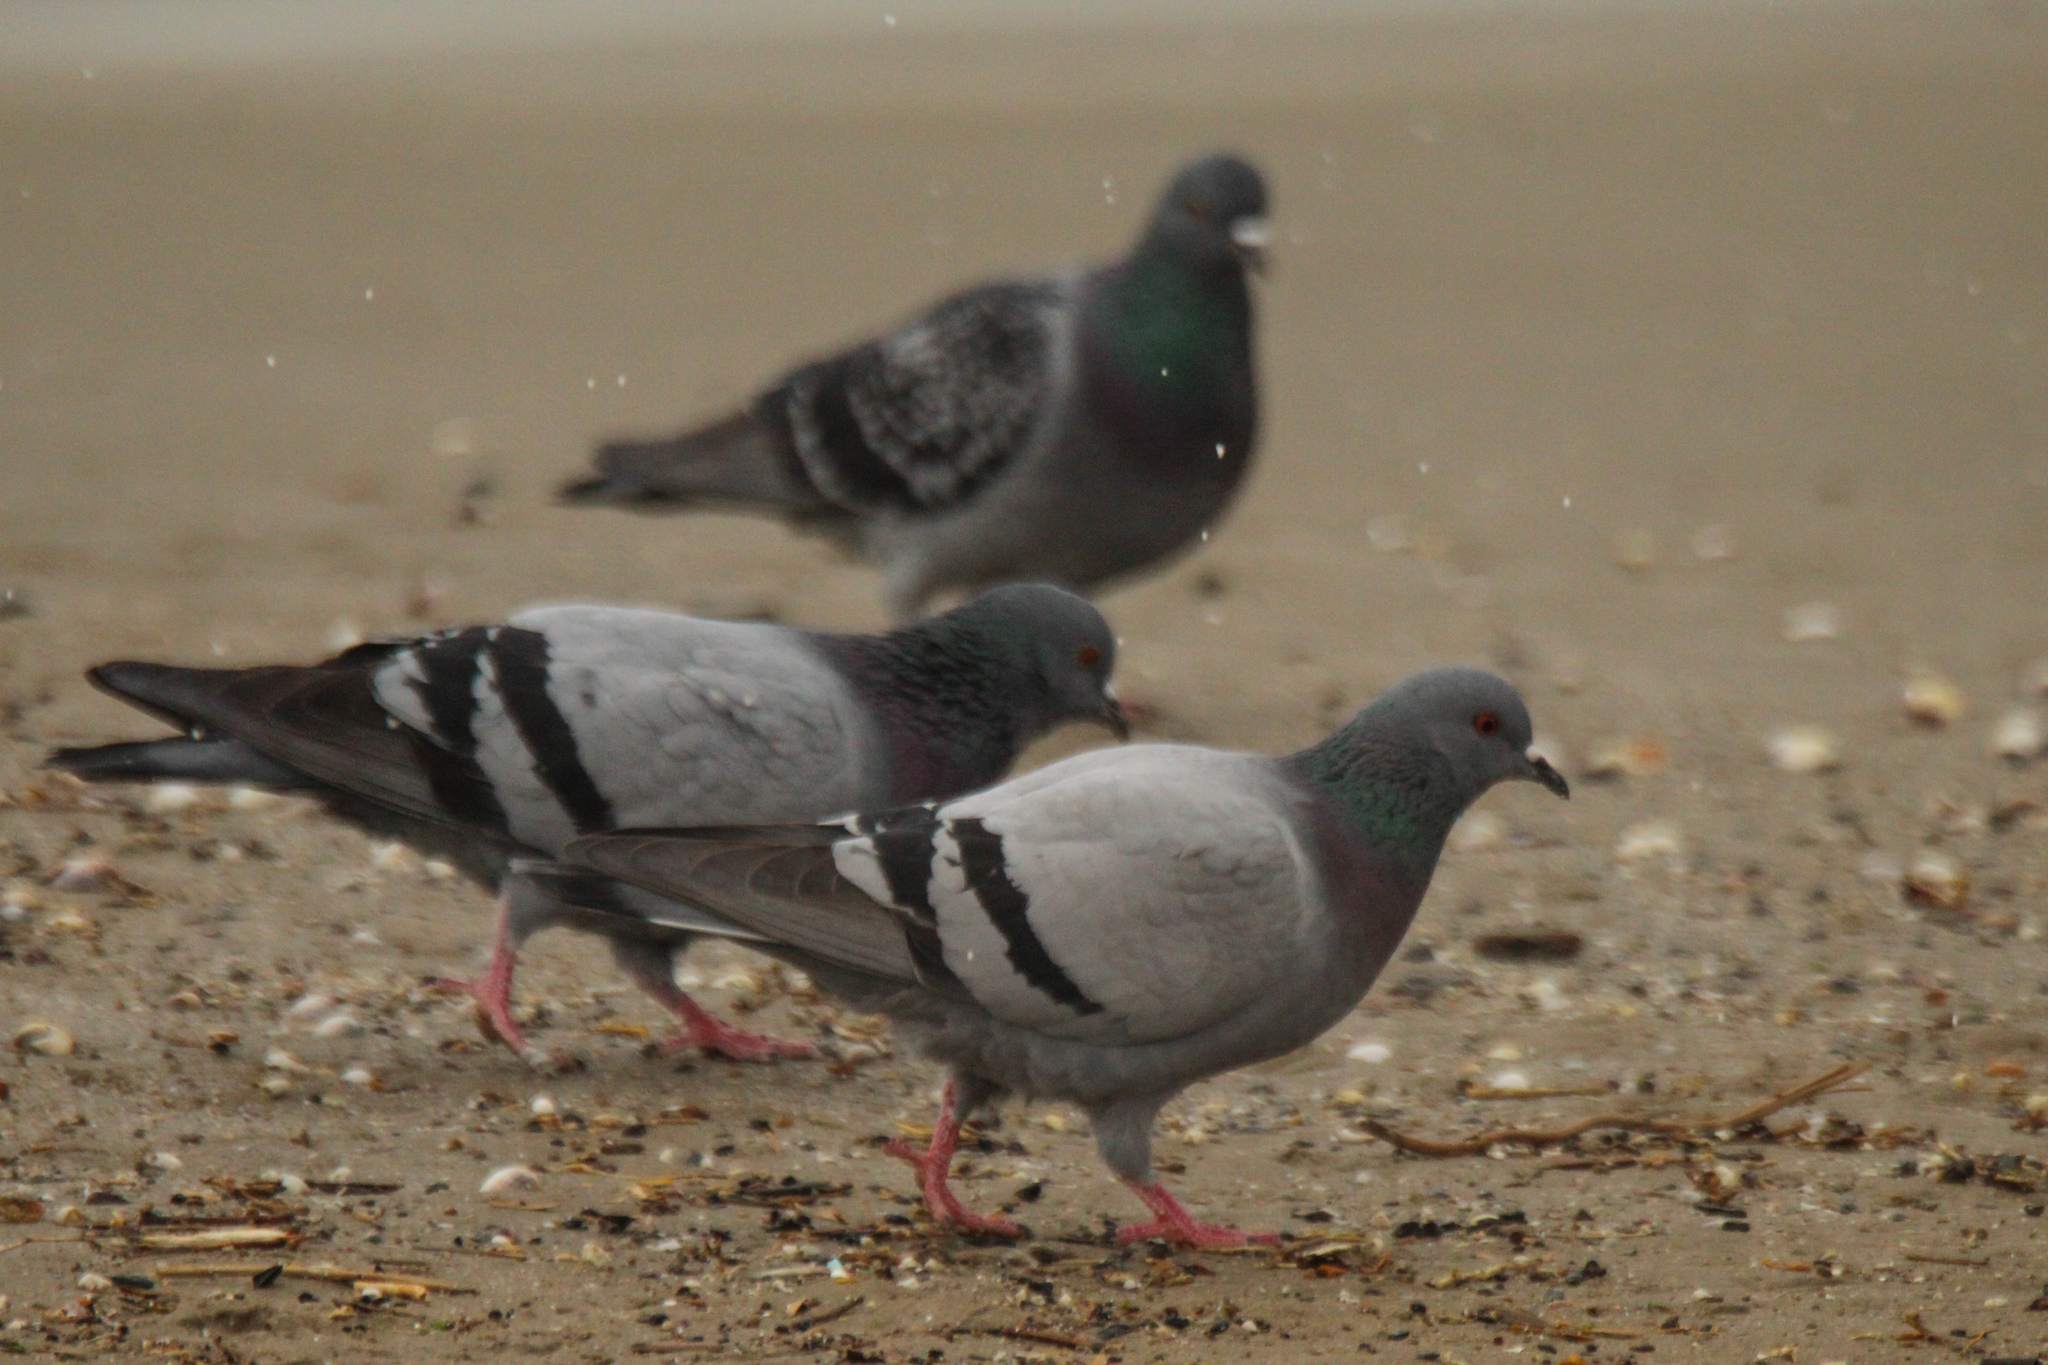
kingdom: Animalia
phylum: Chordata
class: Aves
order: Columbiformes
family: Columbidae
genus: Columba
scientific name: Columba livia
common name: Rock pigeon
